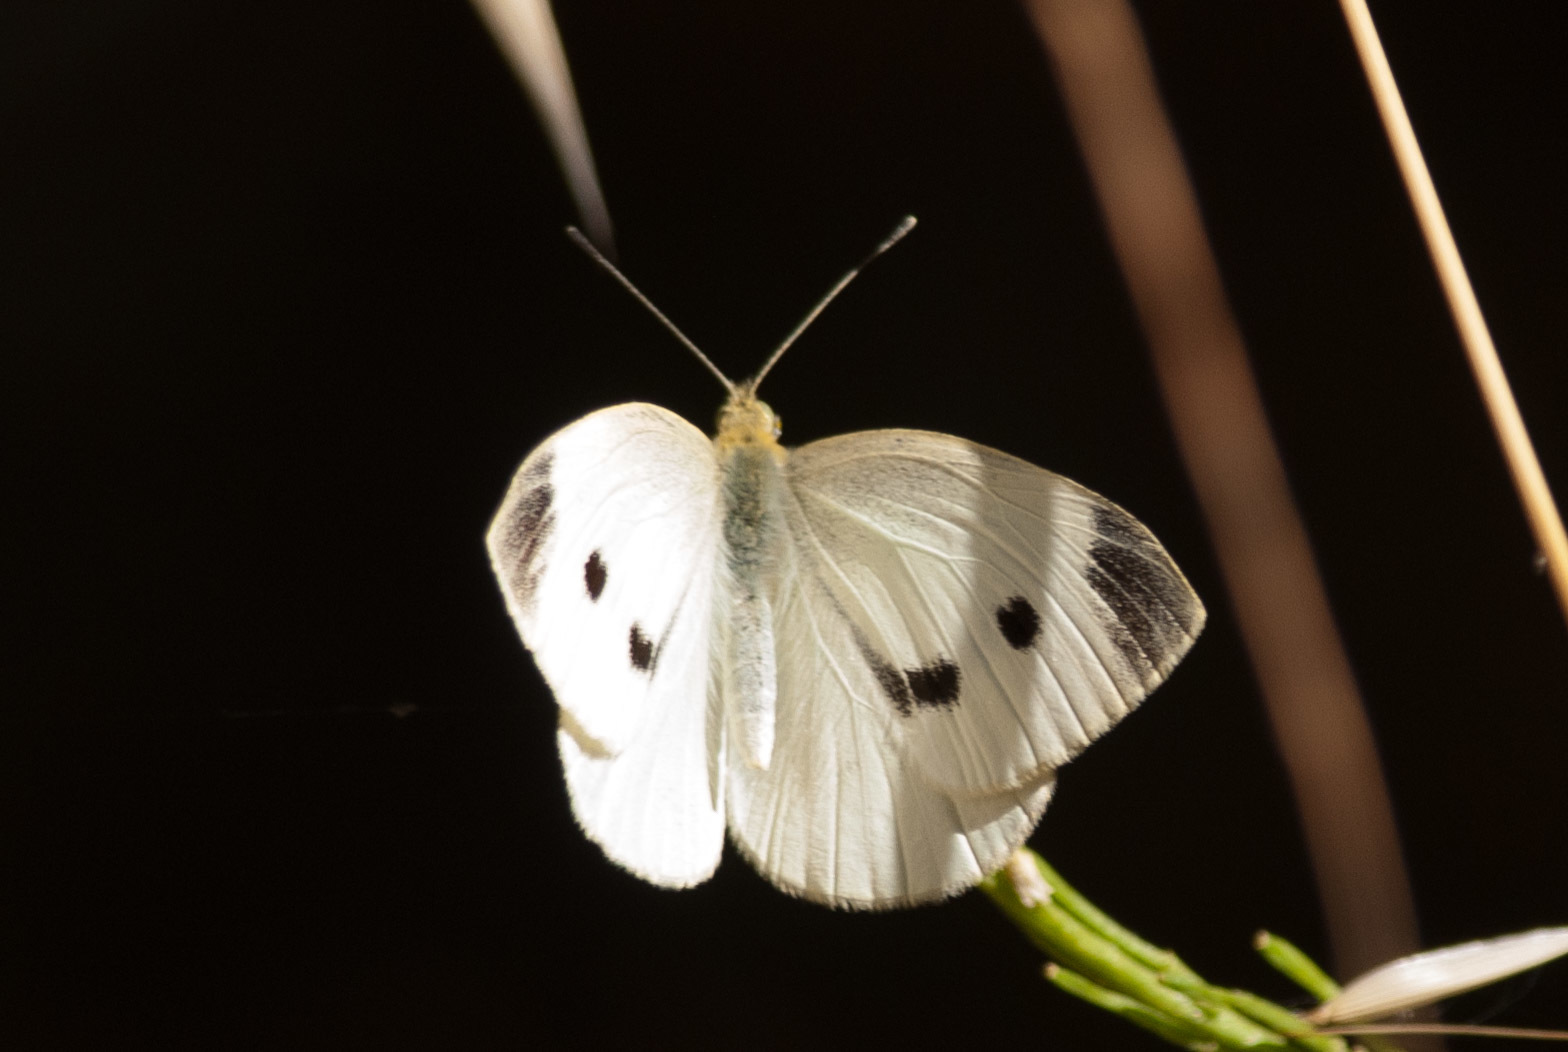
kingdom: Animalia
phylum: Arthropoda
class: Insecta
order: Lepidoptera
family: Pieridae
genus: Pieris
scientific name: Pieris rapae
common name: Small white
